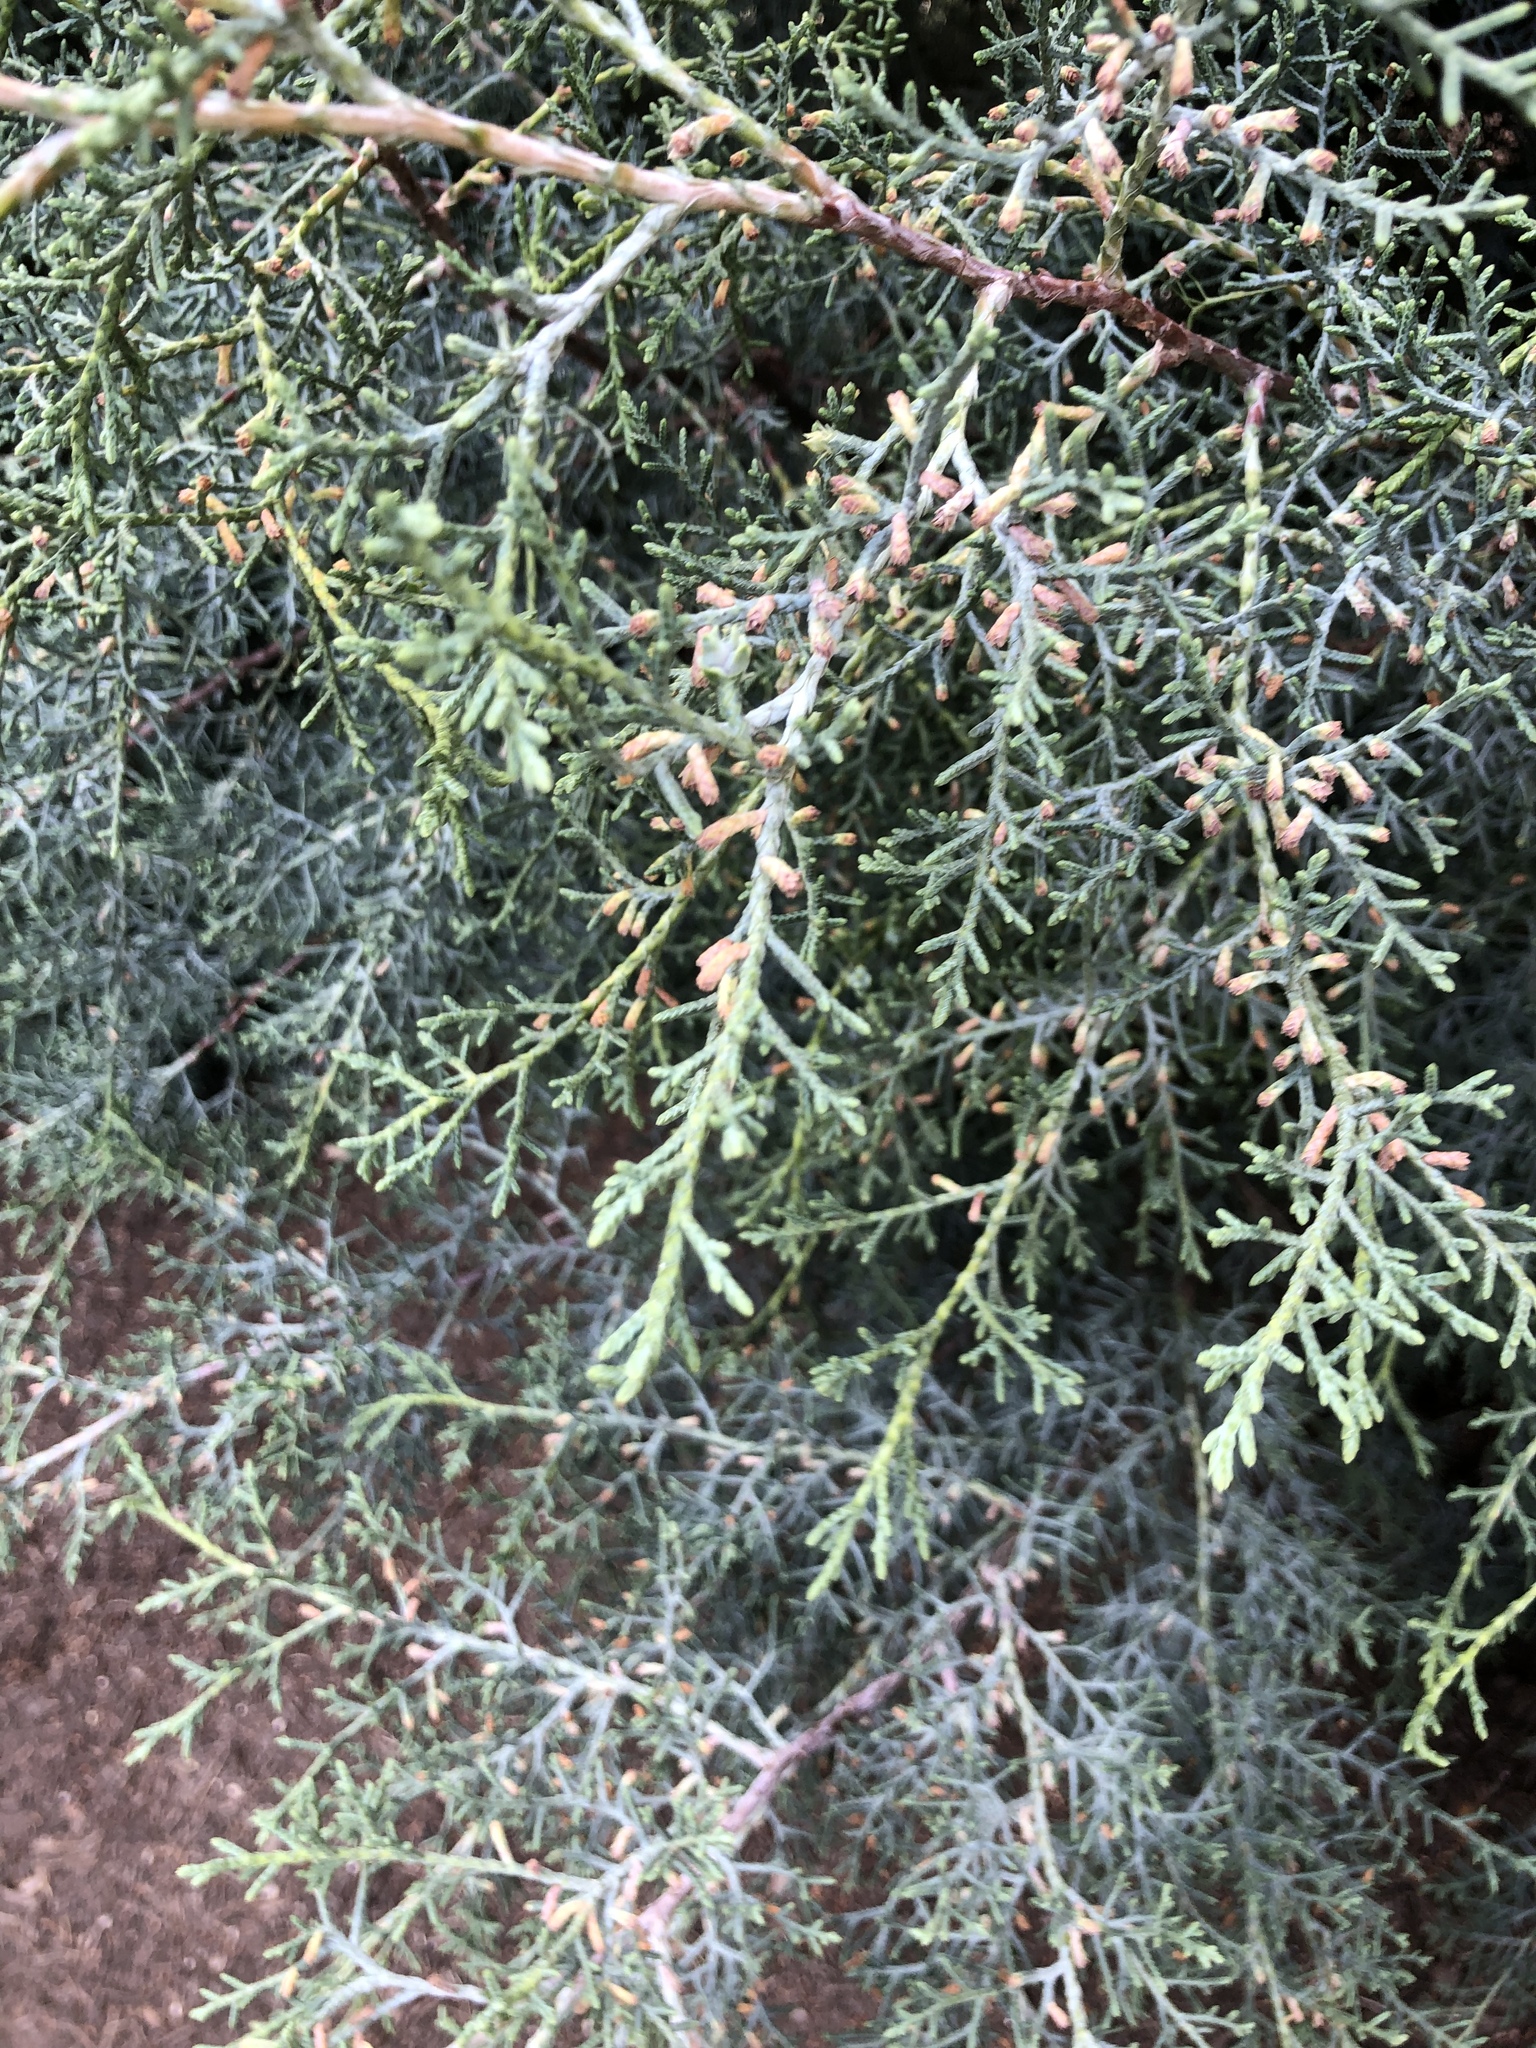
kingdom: Plantae
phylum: Tracheophyta
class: Pinopsida
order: Pinales
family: Cupressaceae
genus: Juniperus
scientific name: Juniperus ashei
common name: Mexican juniper
